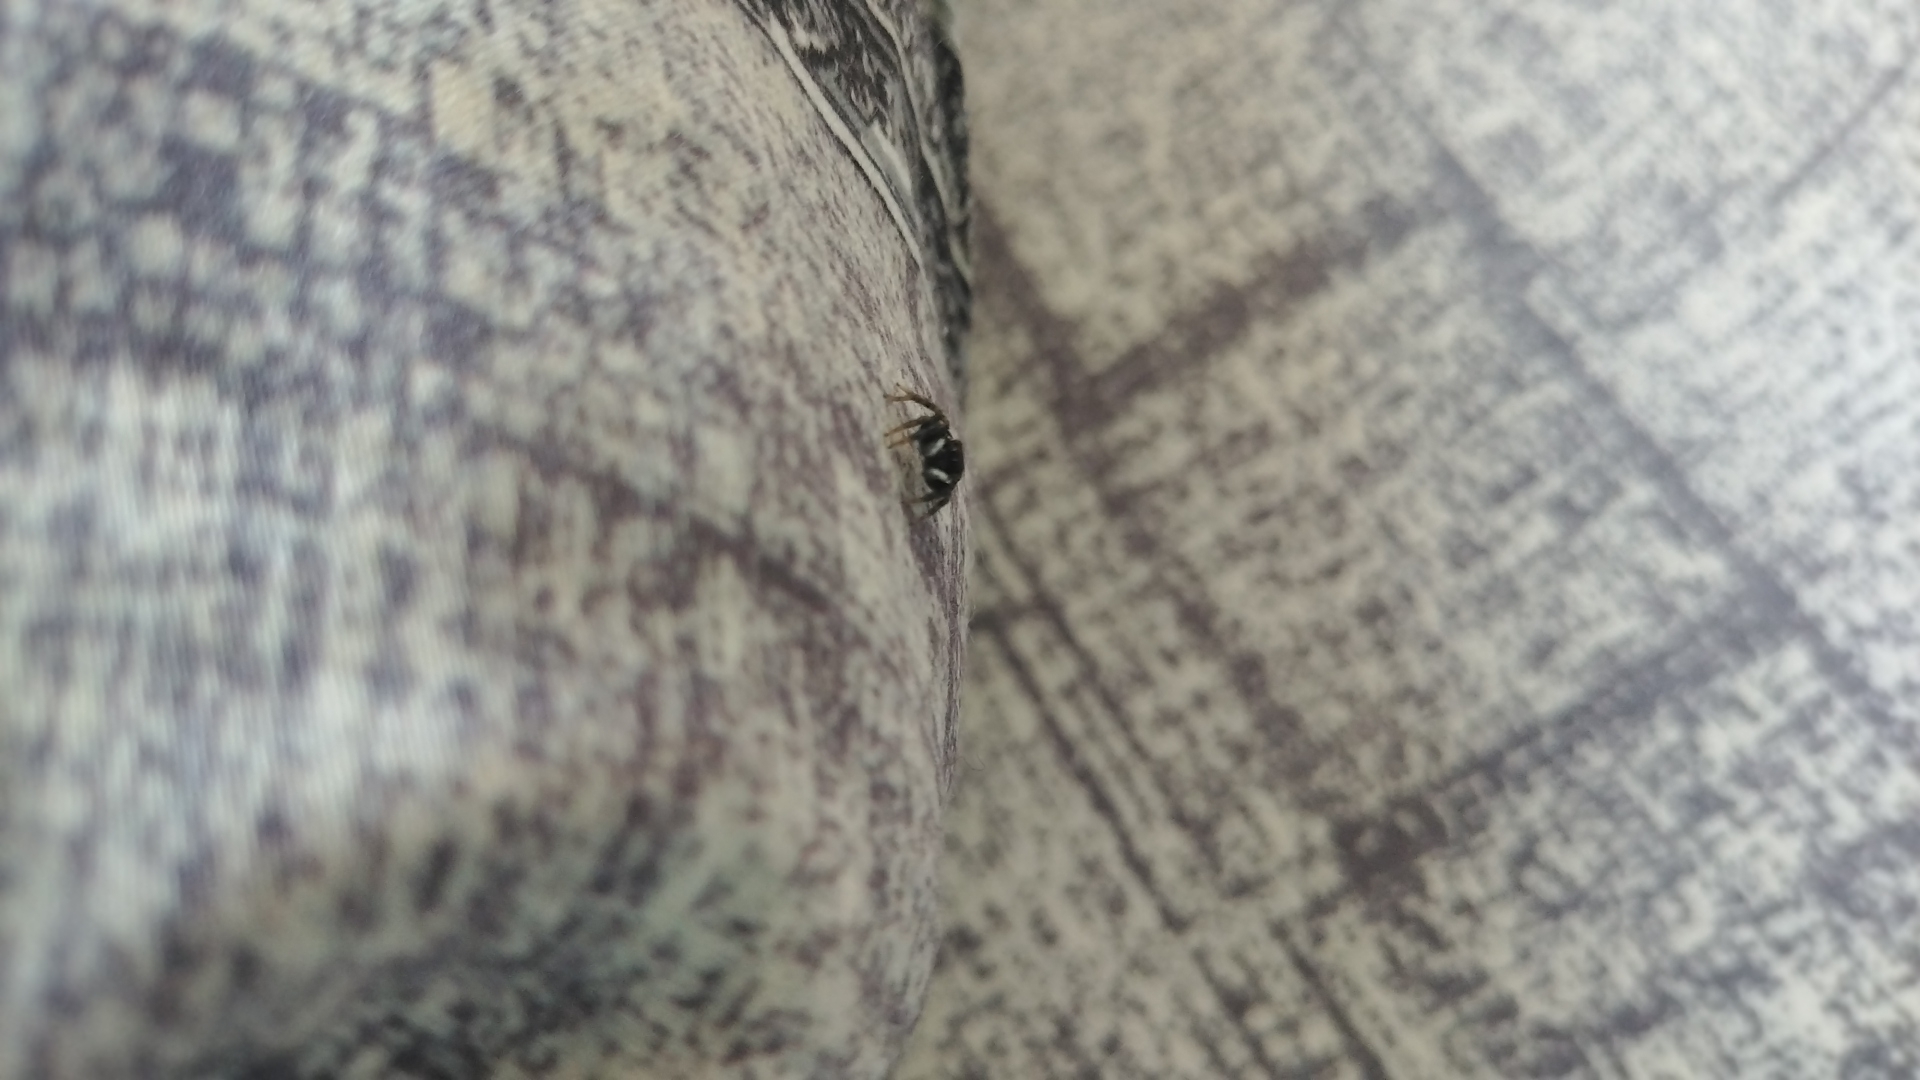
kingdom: Animalia
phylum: Arthropoda
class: Arachnida
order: Araneae
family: Salticidae
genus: Hasarius
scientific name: Hasarius adansoni
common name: Jumping spider
